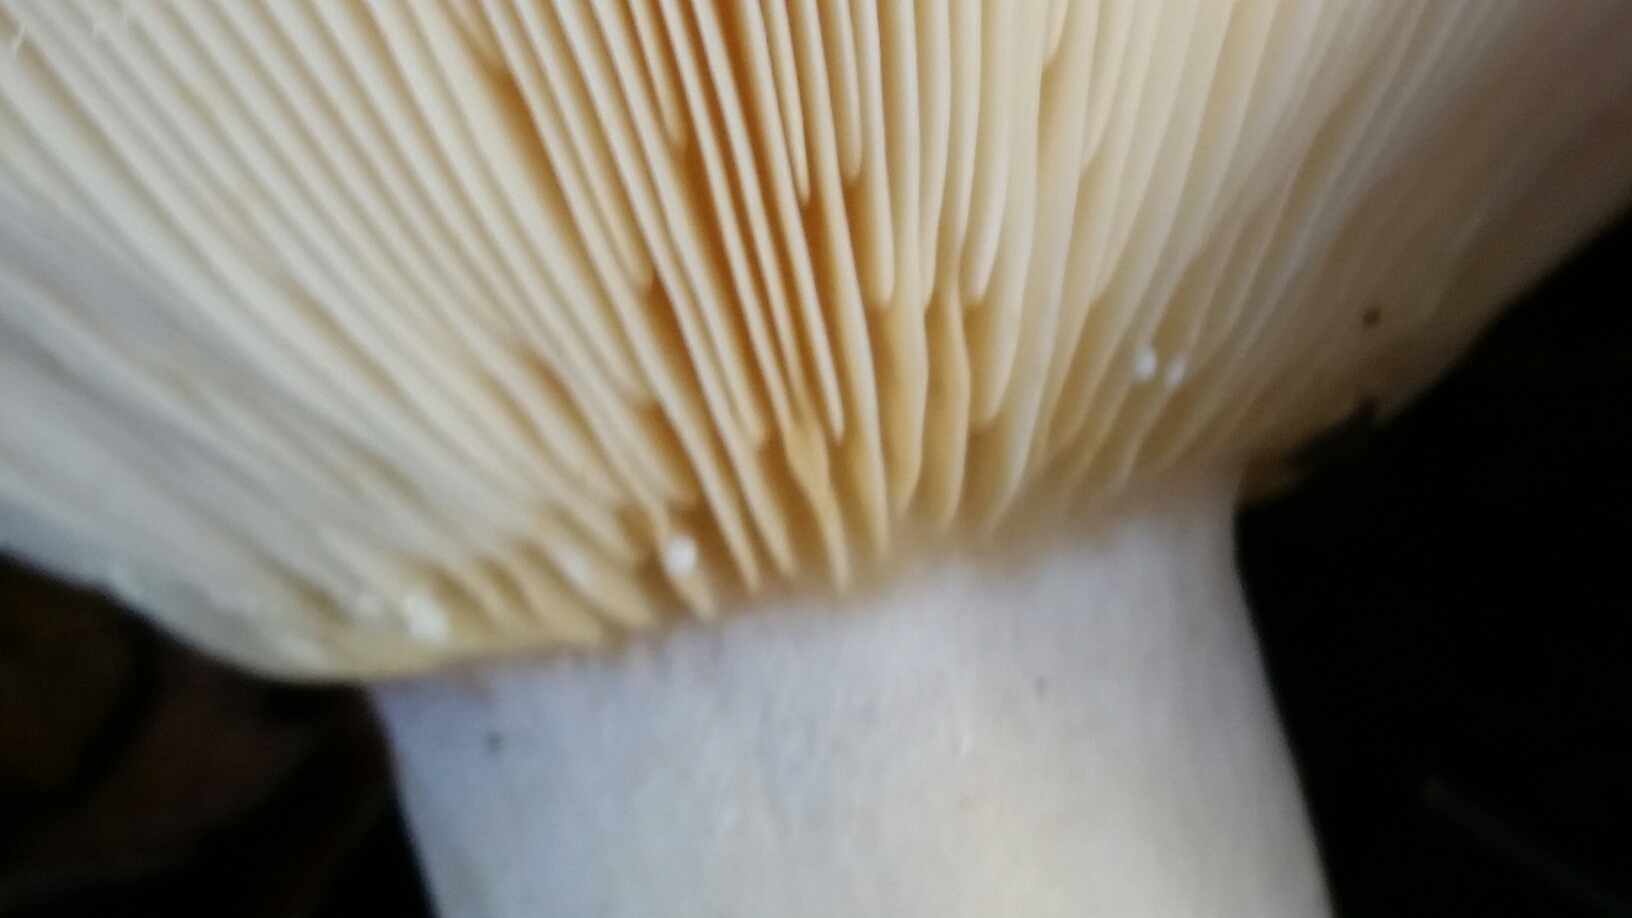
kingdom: Fungi
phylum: Basidiomycota
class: Agaricomycetes
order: Russulales
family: Russulaceae
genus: Lactarius
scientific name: Lactarius alnicola
